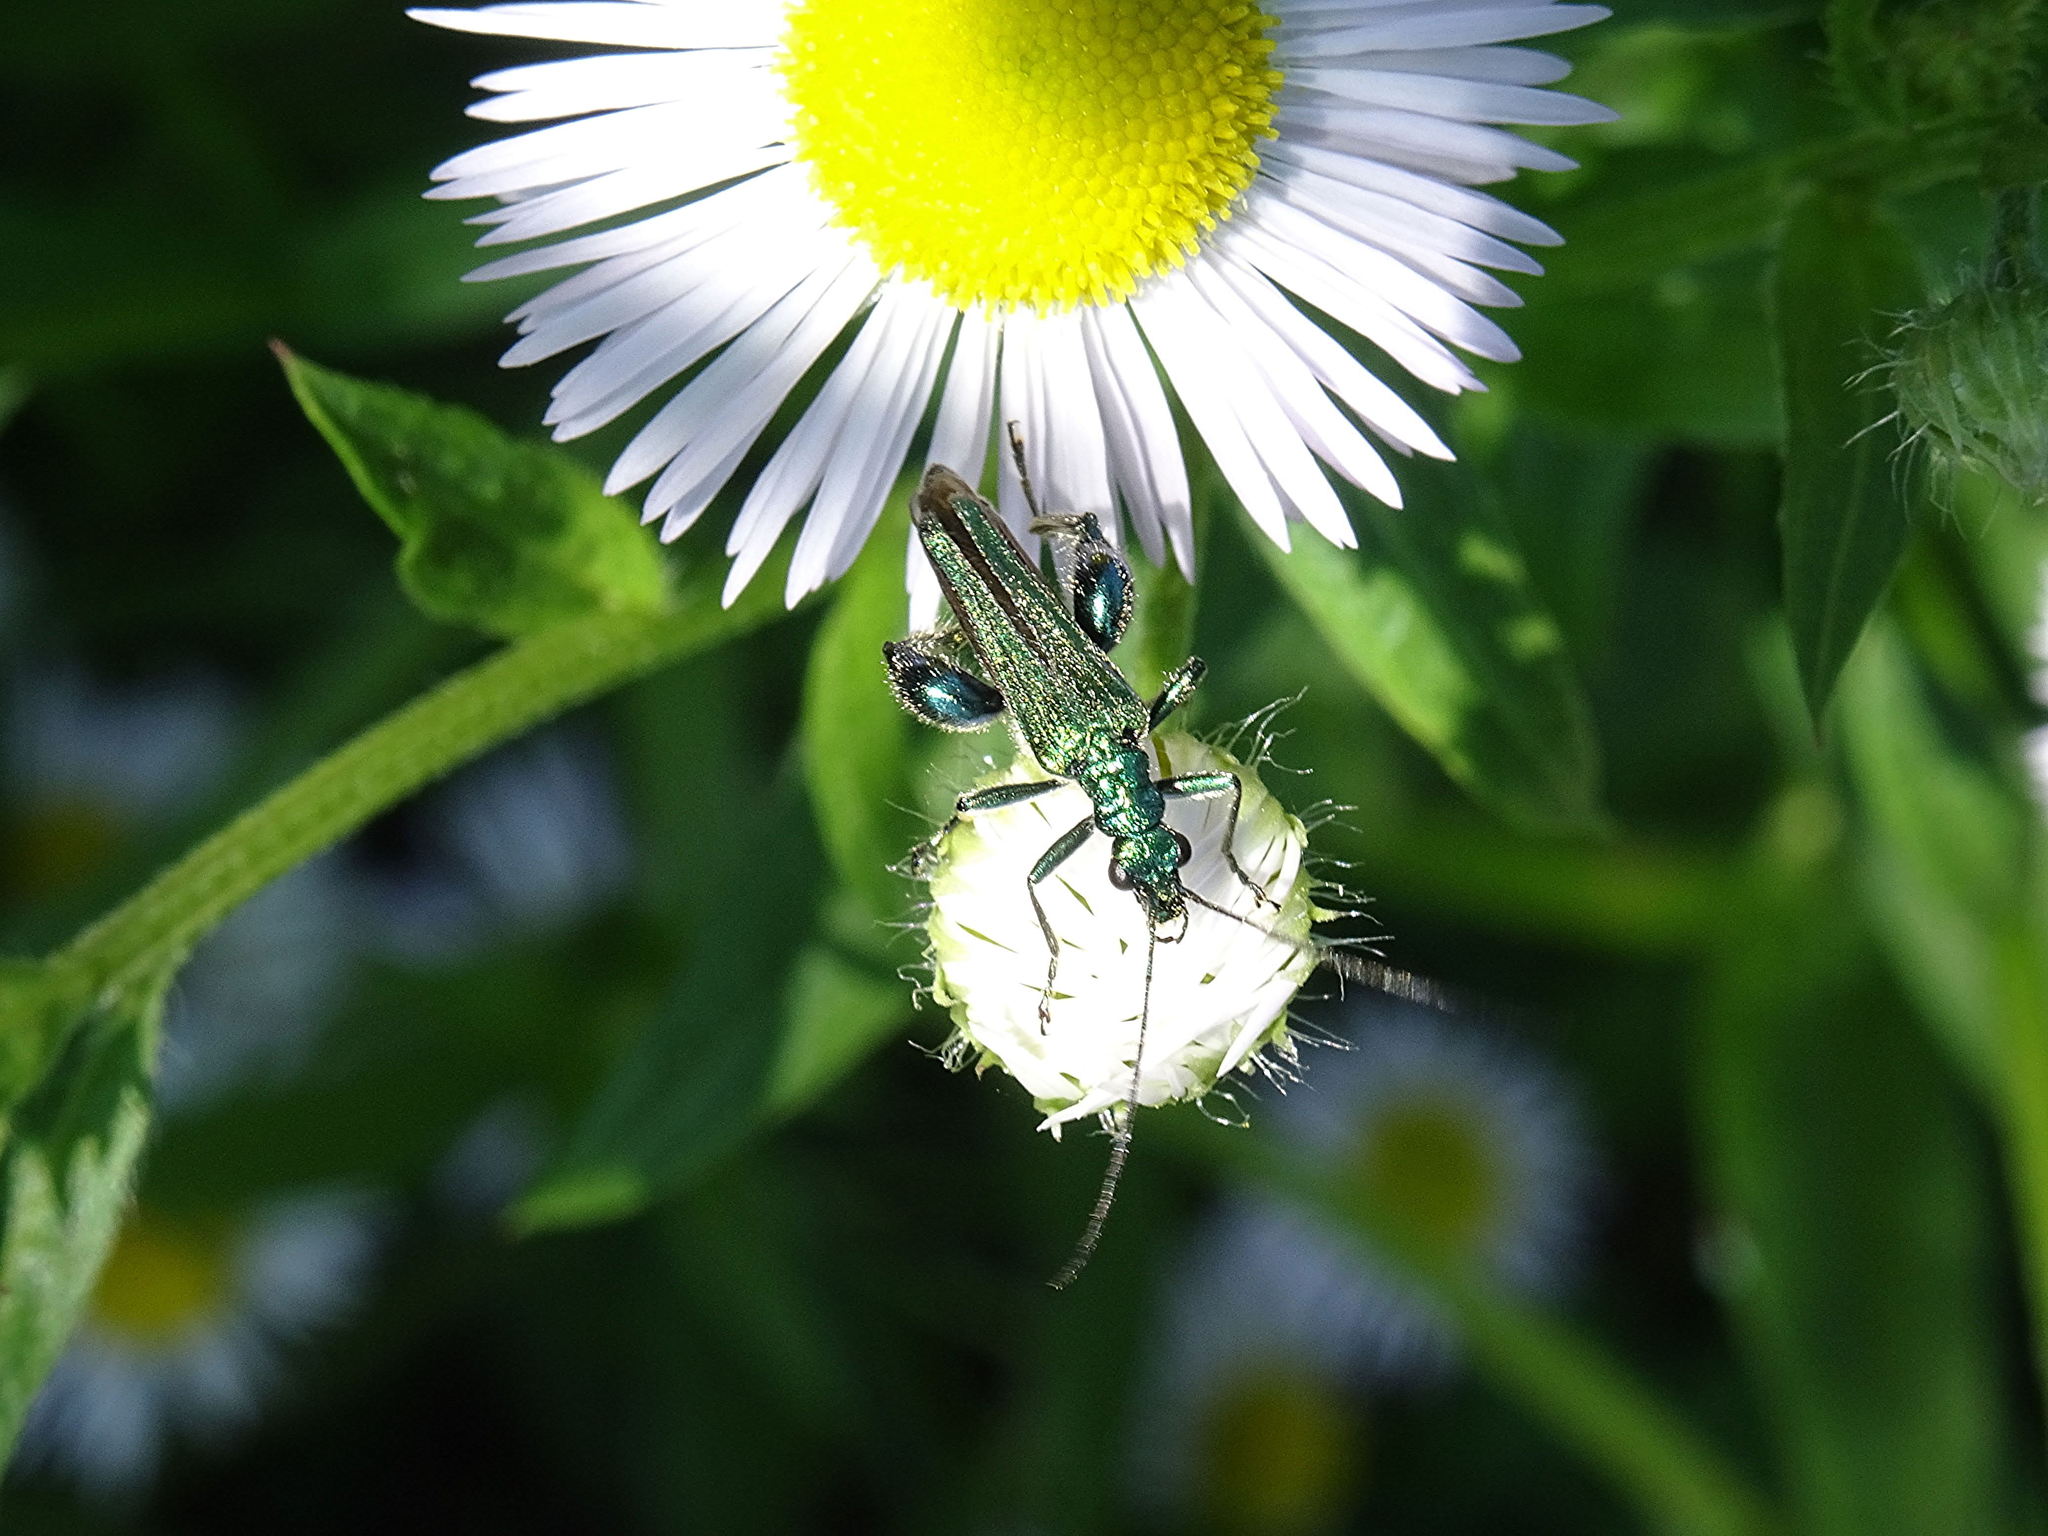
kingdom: Animalia
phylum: Arthropoda
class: Insecta
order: Coleoptera
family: Oedemeridae
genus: Oedemera
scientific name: Oedemera nobilis
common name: Swollen-thighed beetle
